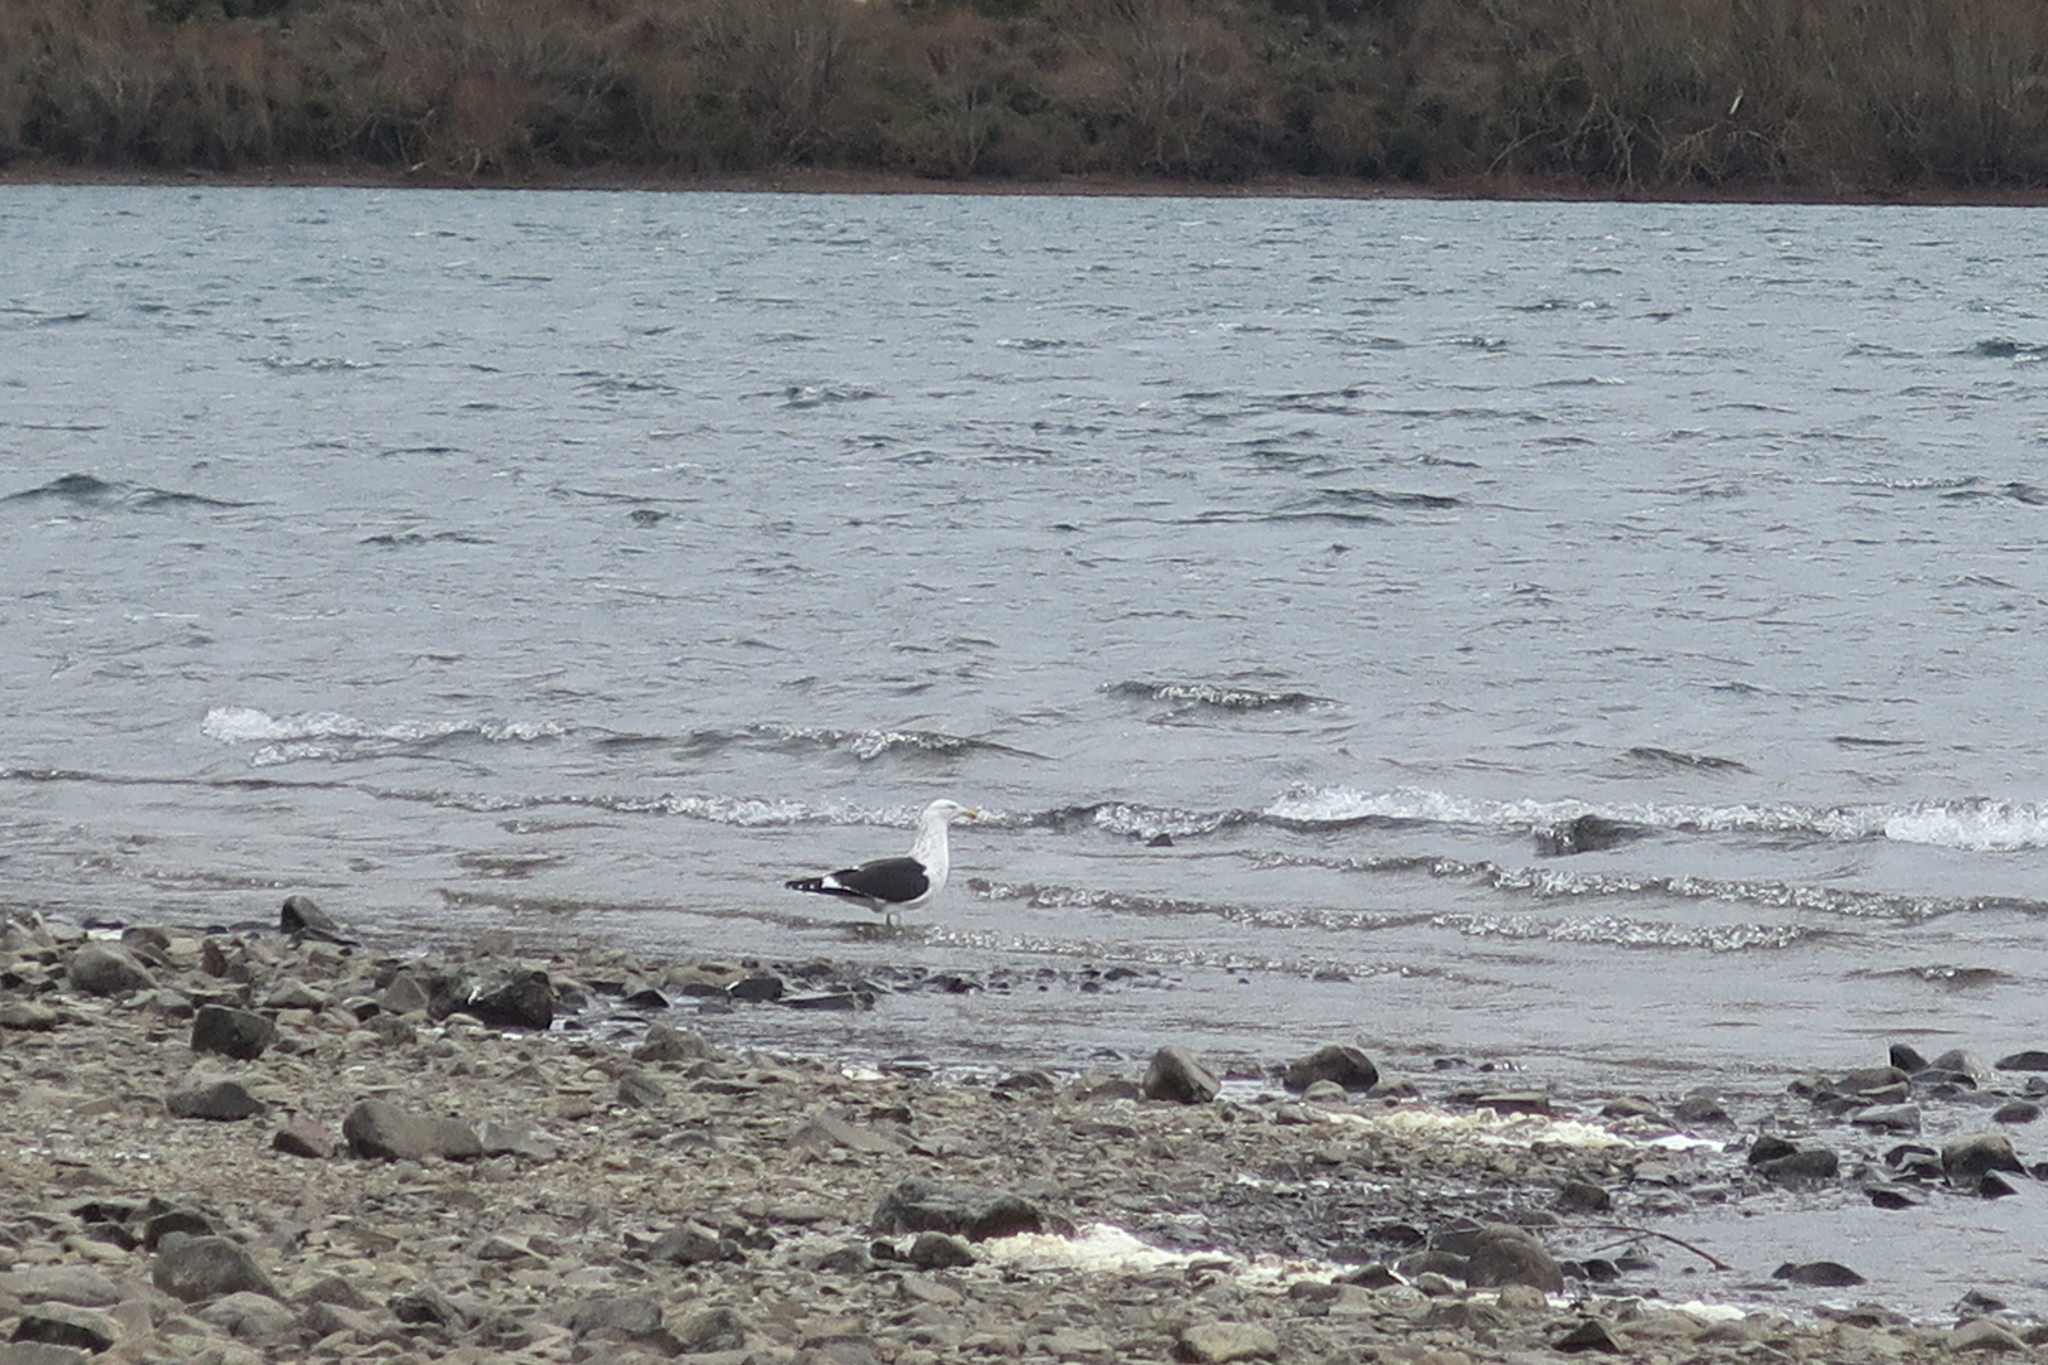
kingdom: Animalia
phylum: Chordata
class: Aves
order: Charadriiformes
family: Laridae
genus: Larus
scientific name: Larus dominicanus
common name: Kelp gull
